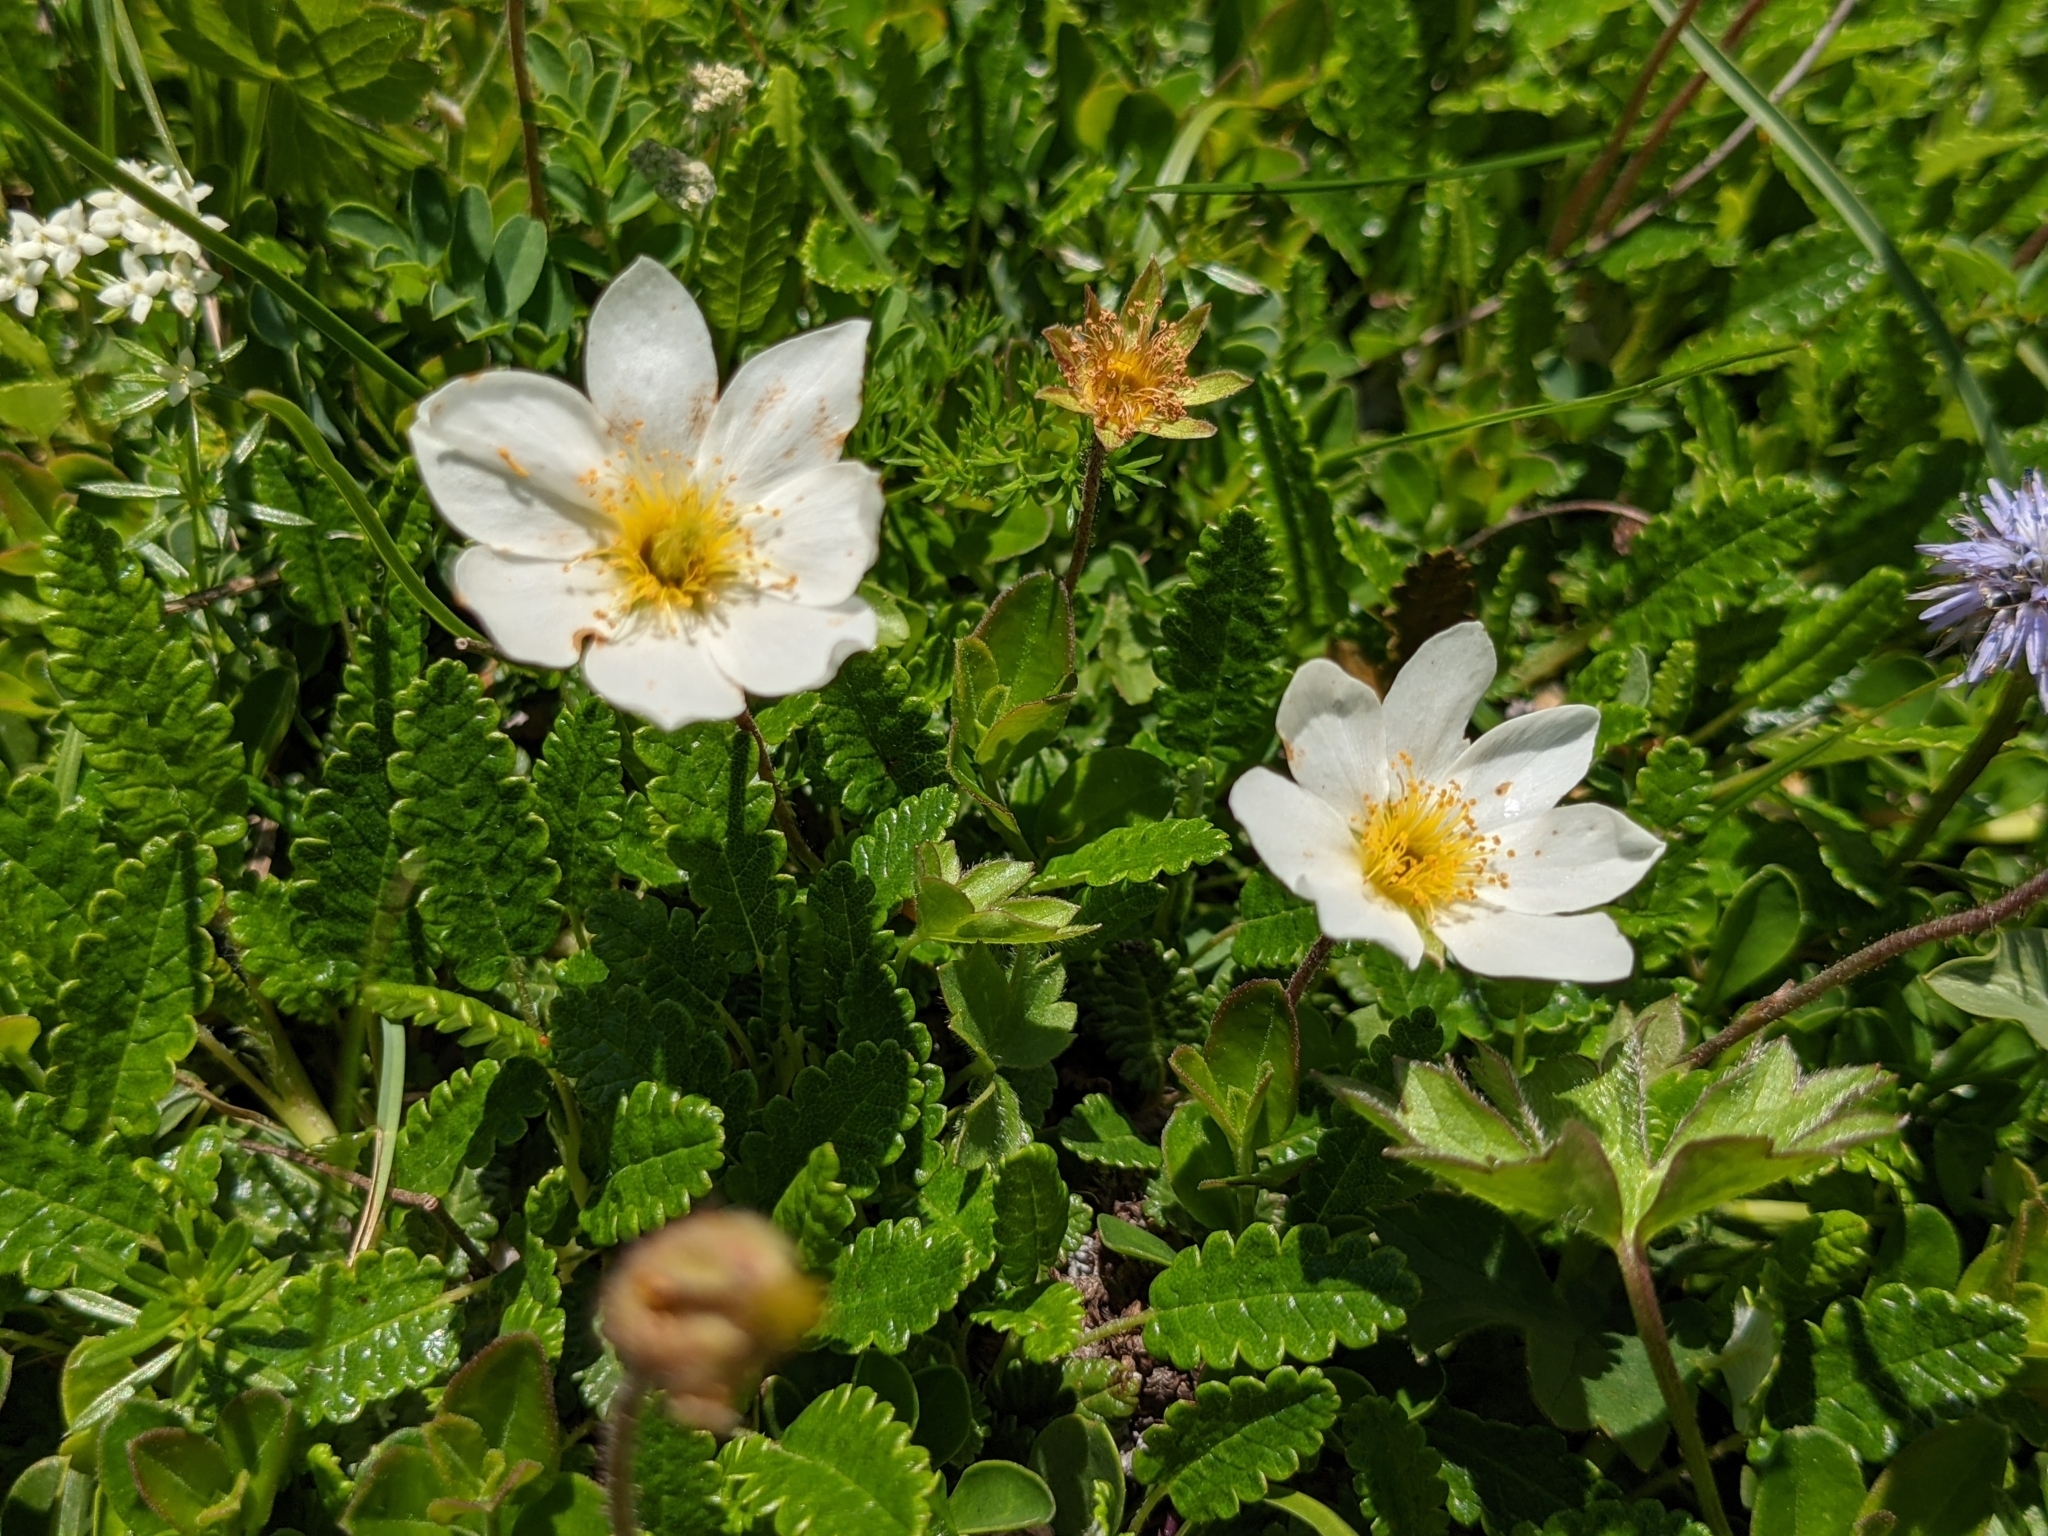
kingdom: Plantae
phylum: Tracheophyta
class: Magnoliopsida
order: Rosales
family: Rosaceae
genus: Dryas
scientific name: Dryas octopetala
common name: Eight-petal mountain-avens
